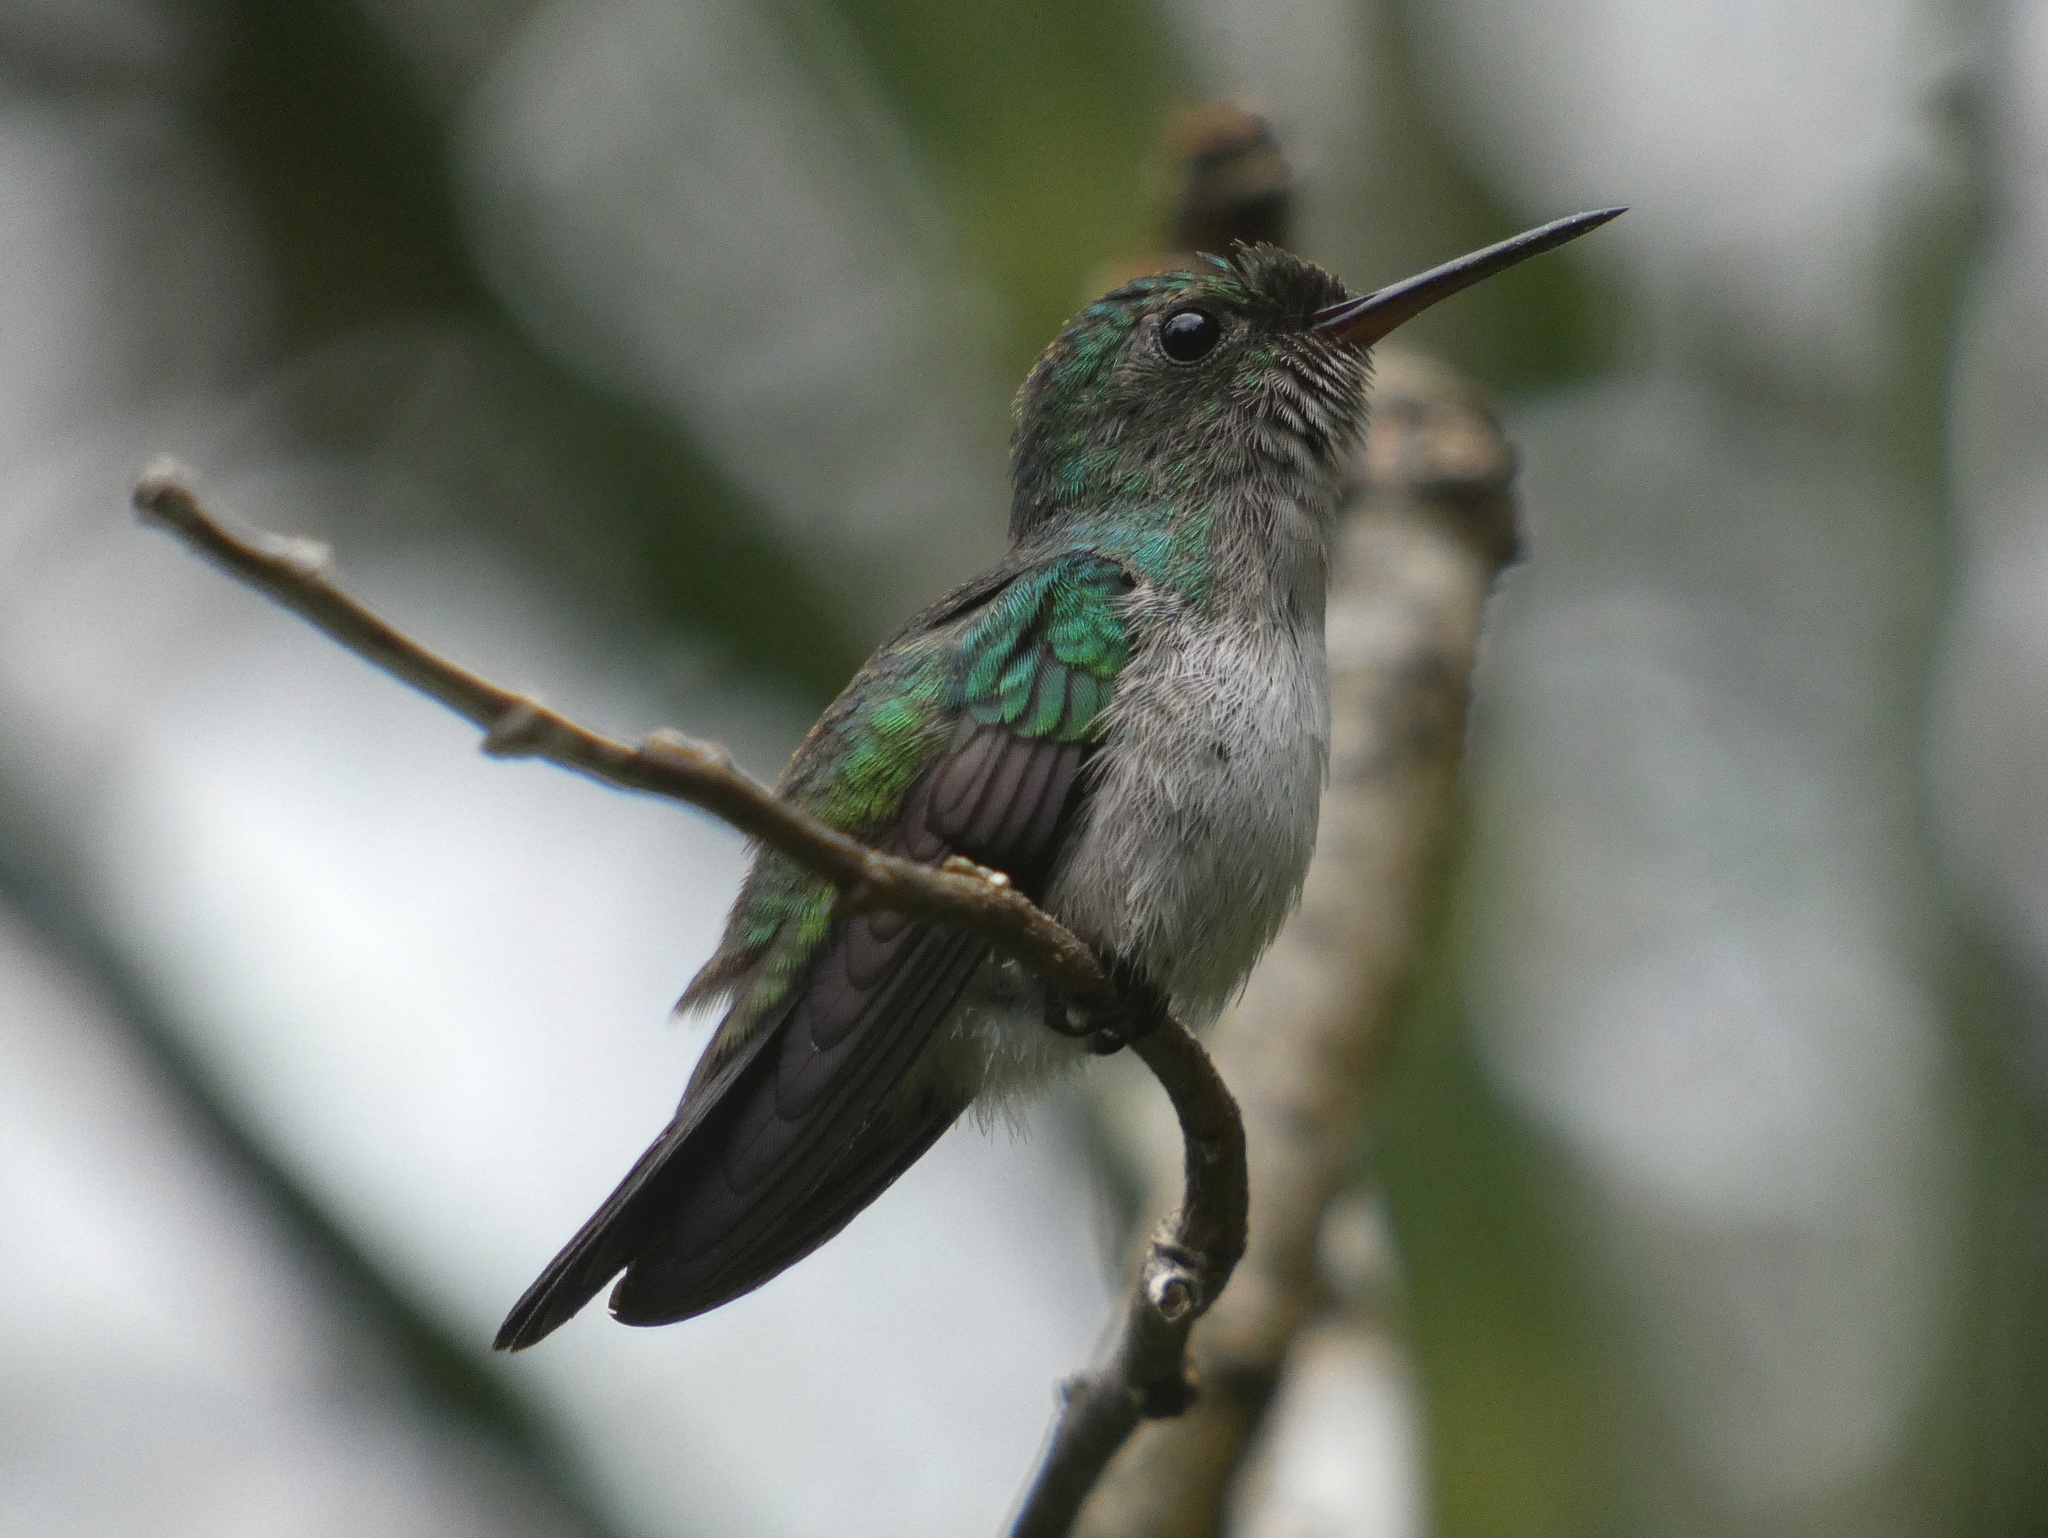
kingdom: Animalia
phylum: Chordata
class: Aves
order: Apodiformes
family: Trochilidae
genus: Chlorestes
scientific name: Chlorestes julie
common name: Violet-bellied hummingbird
